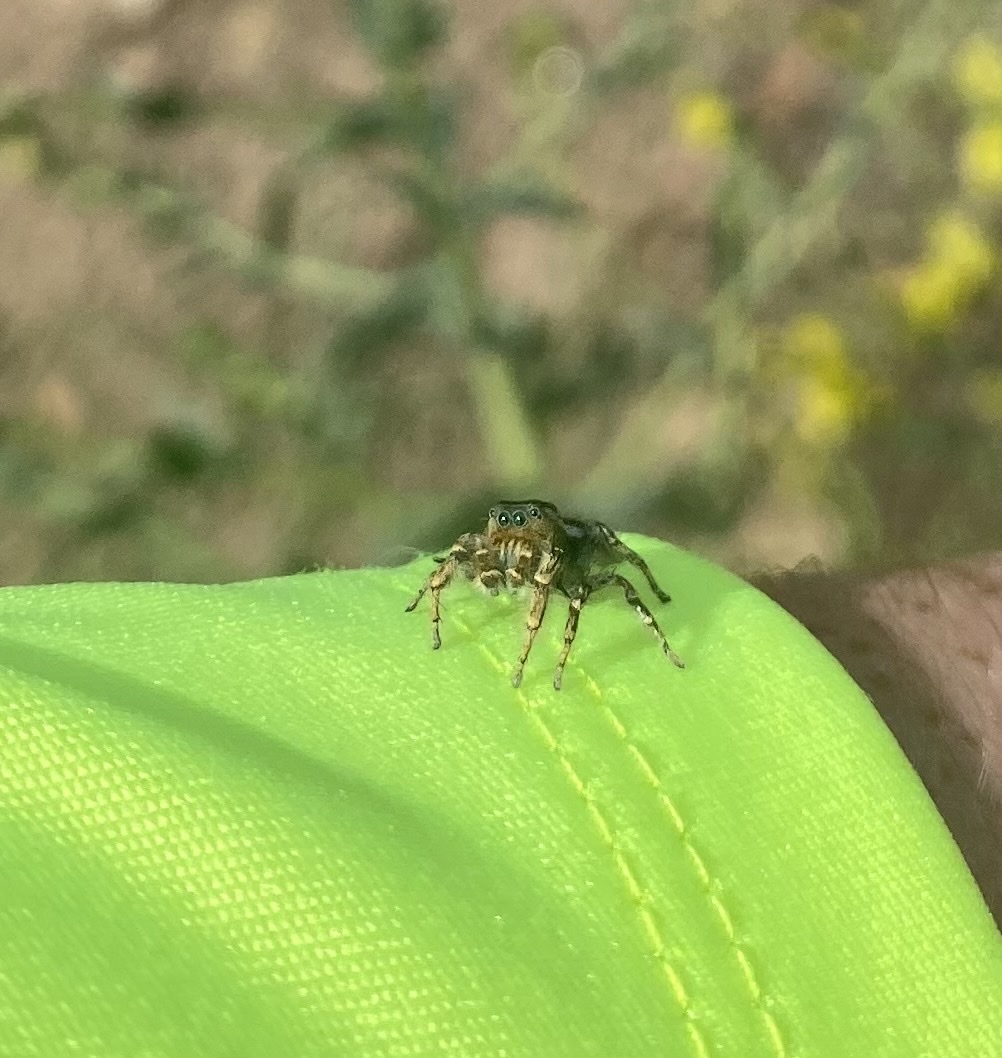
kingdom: Animalia
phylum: Arthropoda
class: Arachnida
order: Araneae
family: Salticidae
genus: Phidippus
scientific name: Phidippus comatus
